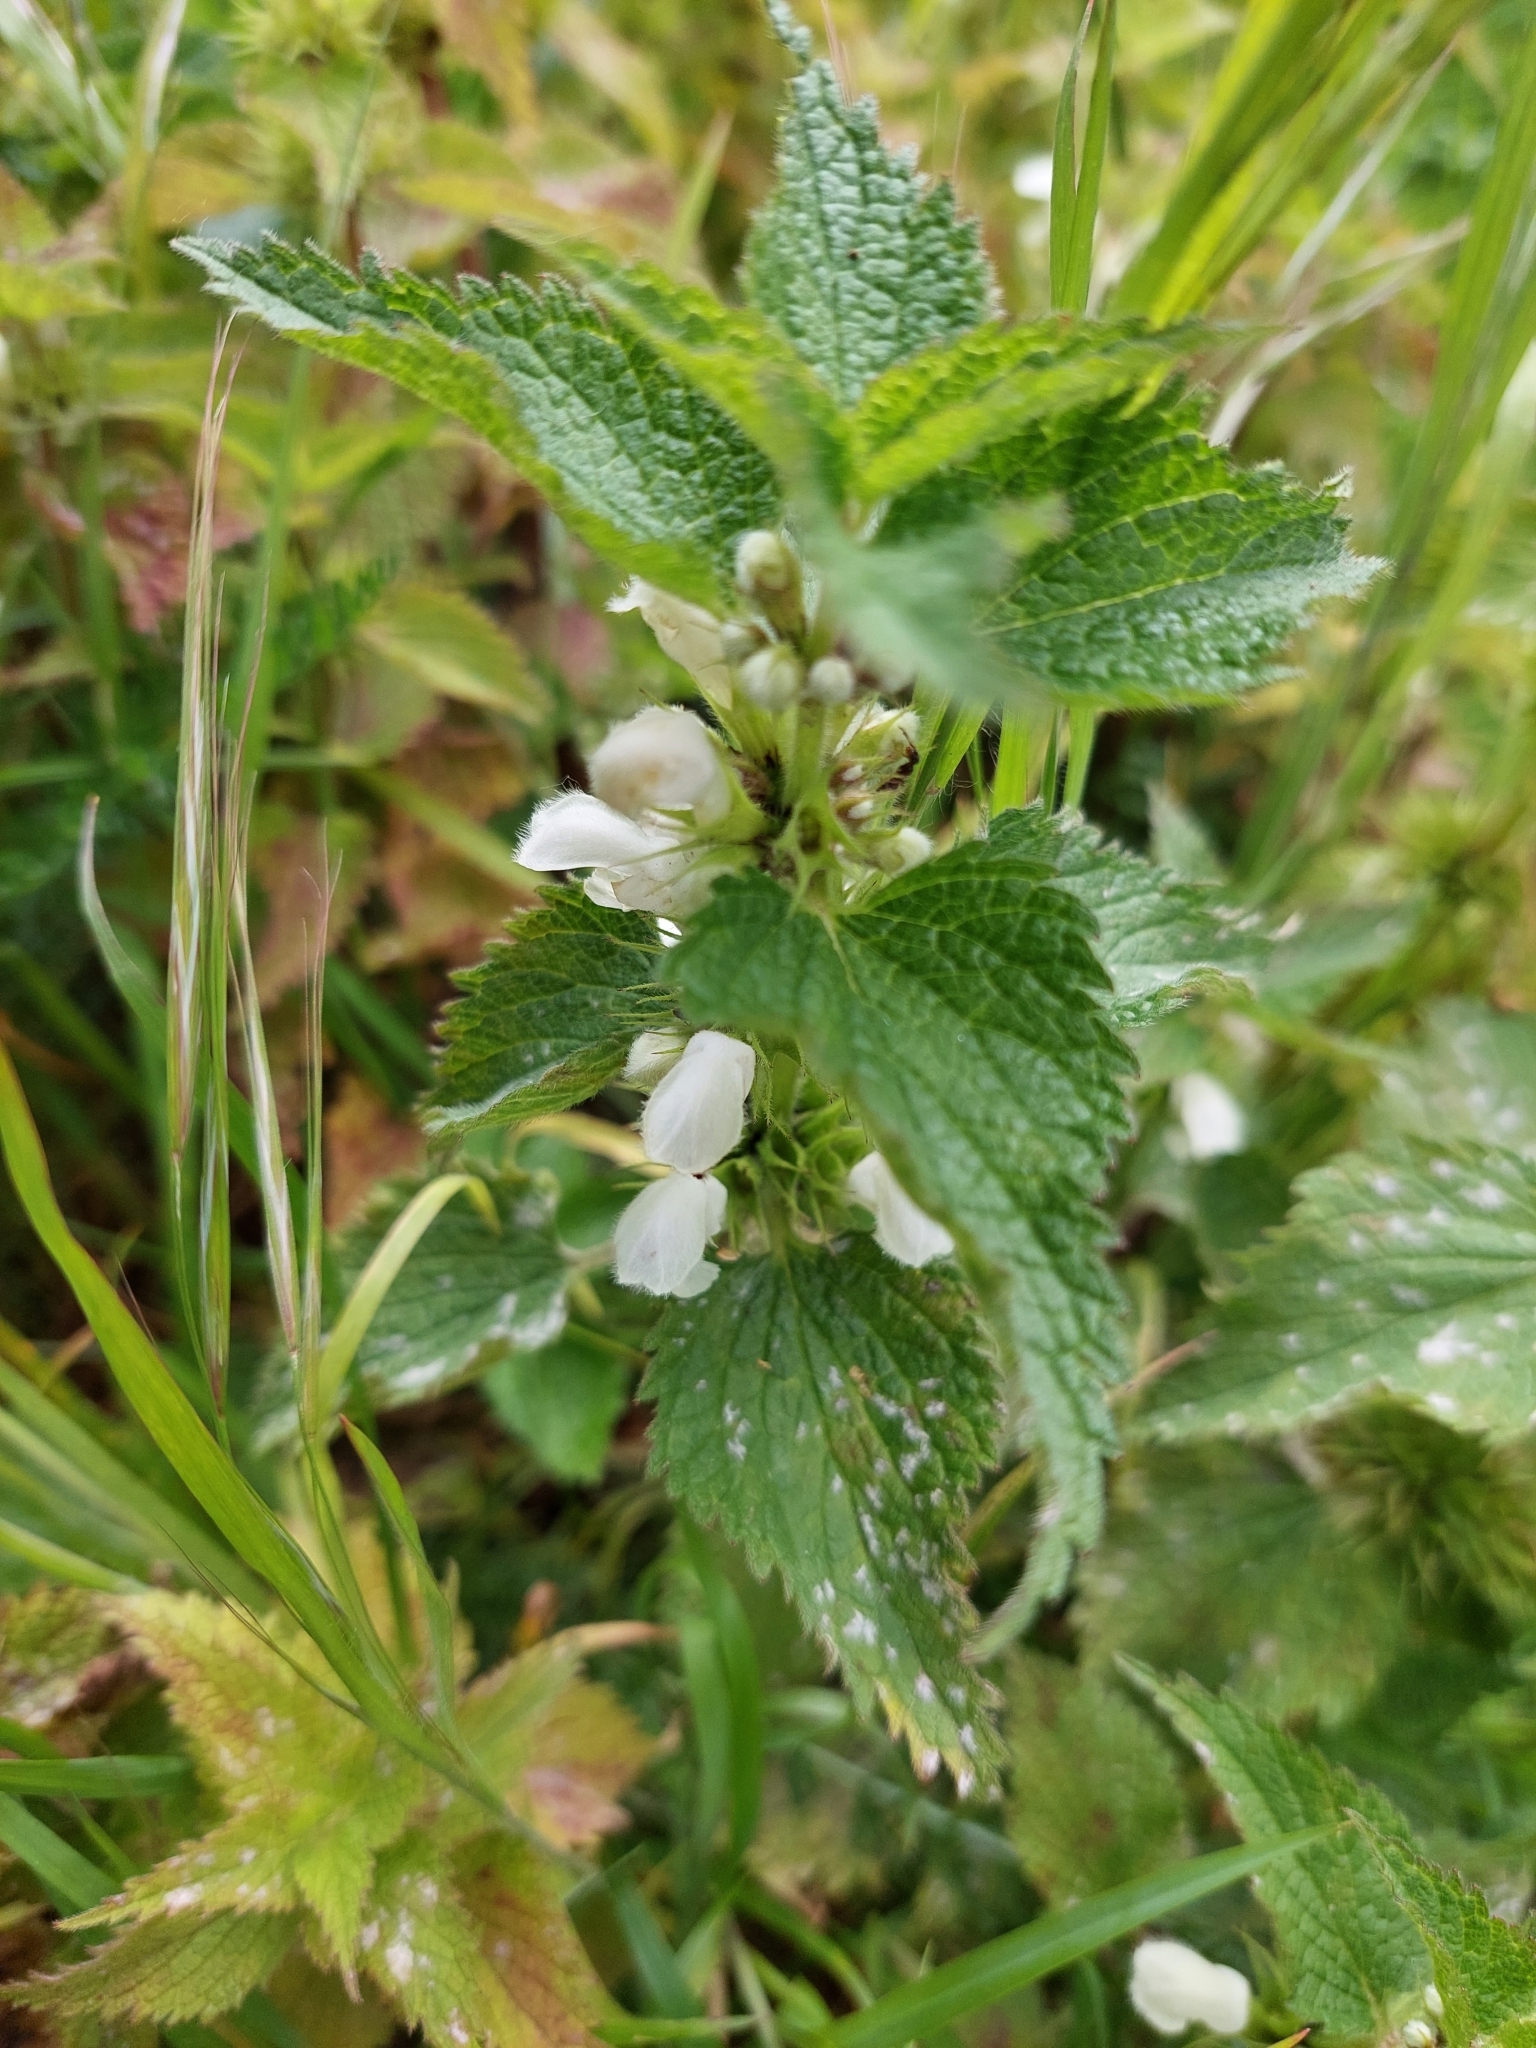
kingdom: Plantae
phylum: Tracheophyta
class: Magnoliopsida
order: Lamiales
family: Lamiaceae
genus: Lamium
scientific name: Lamium album
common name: White dead-nettle
